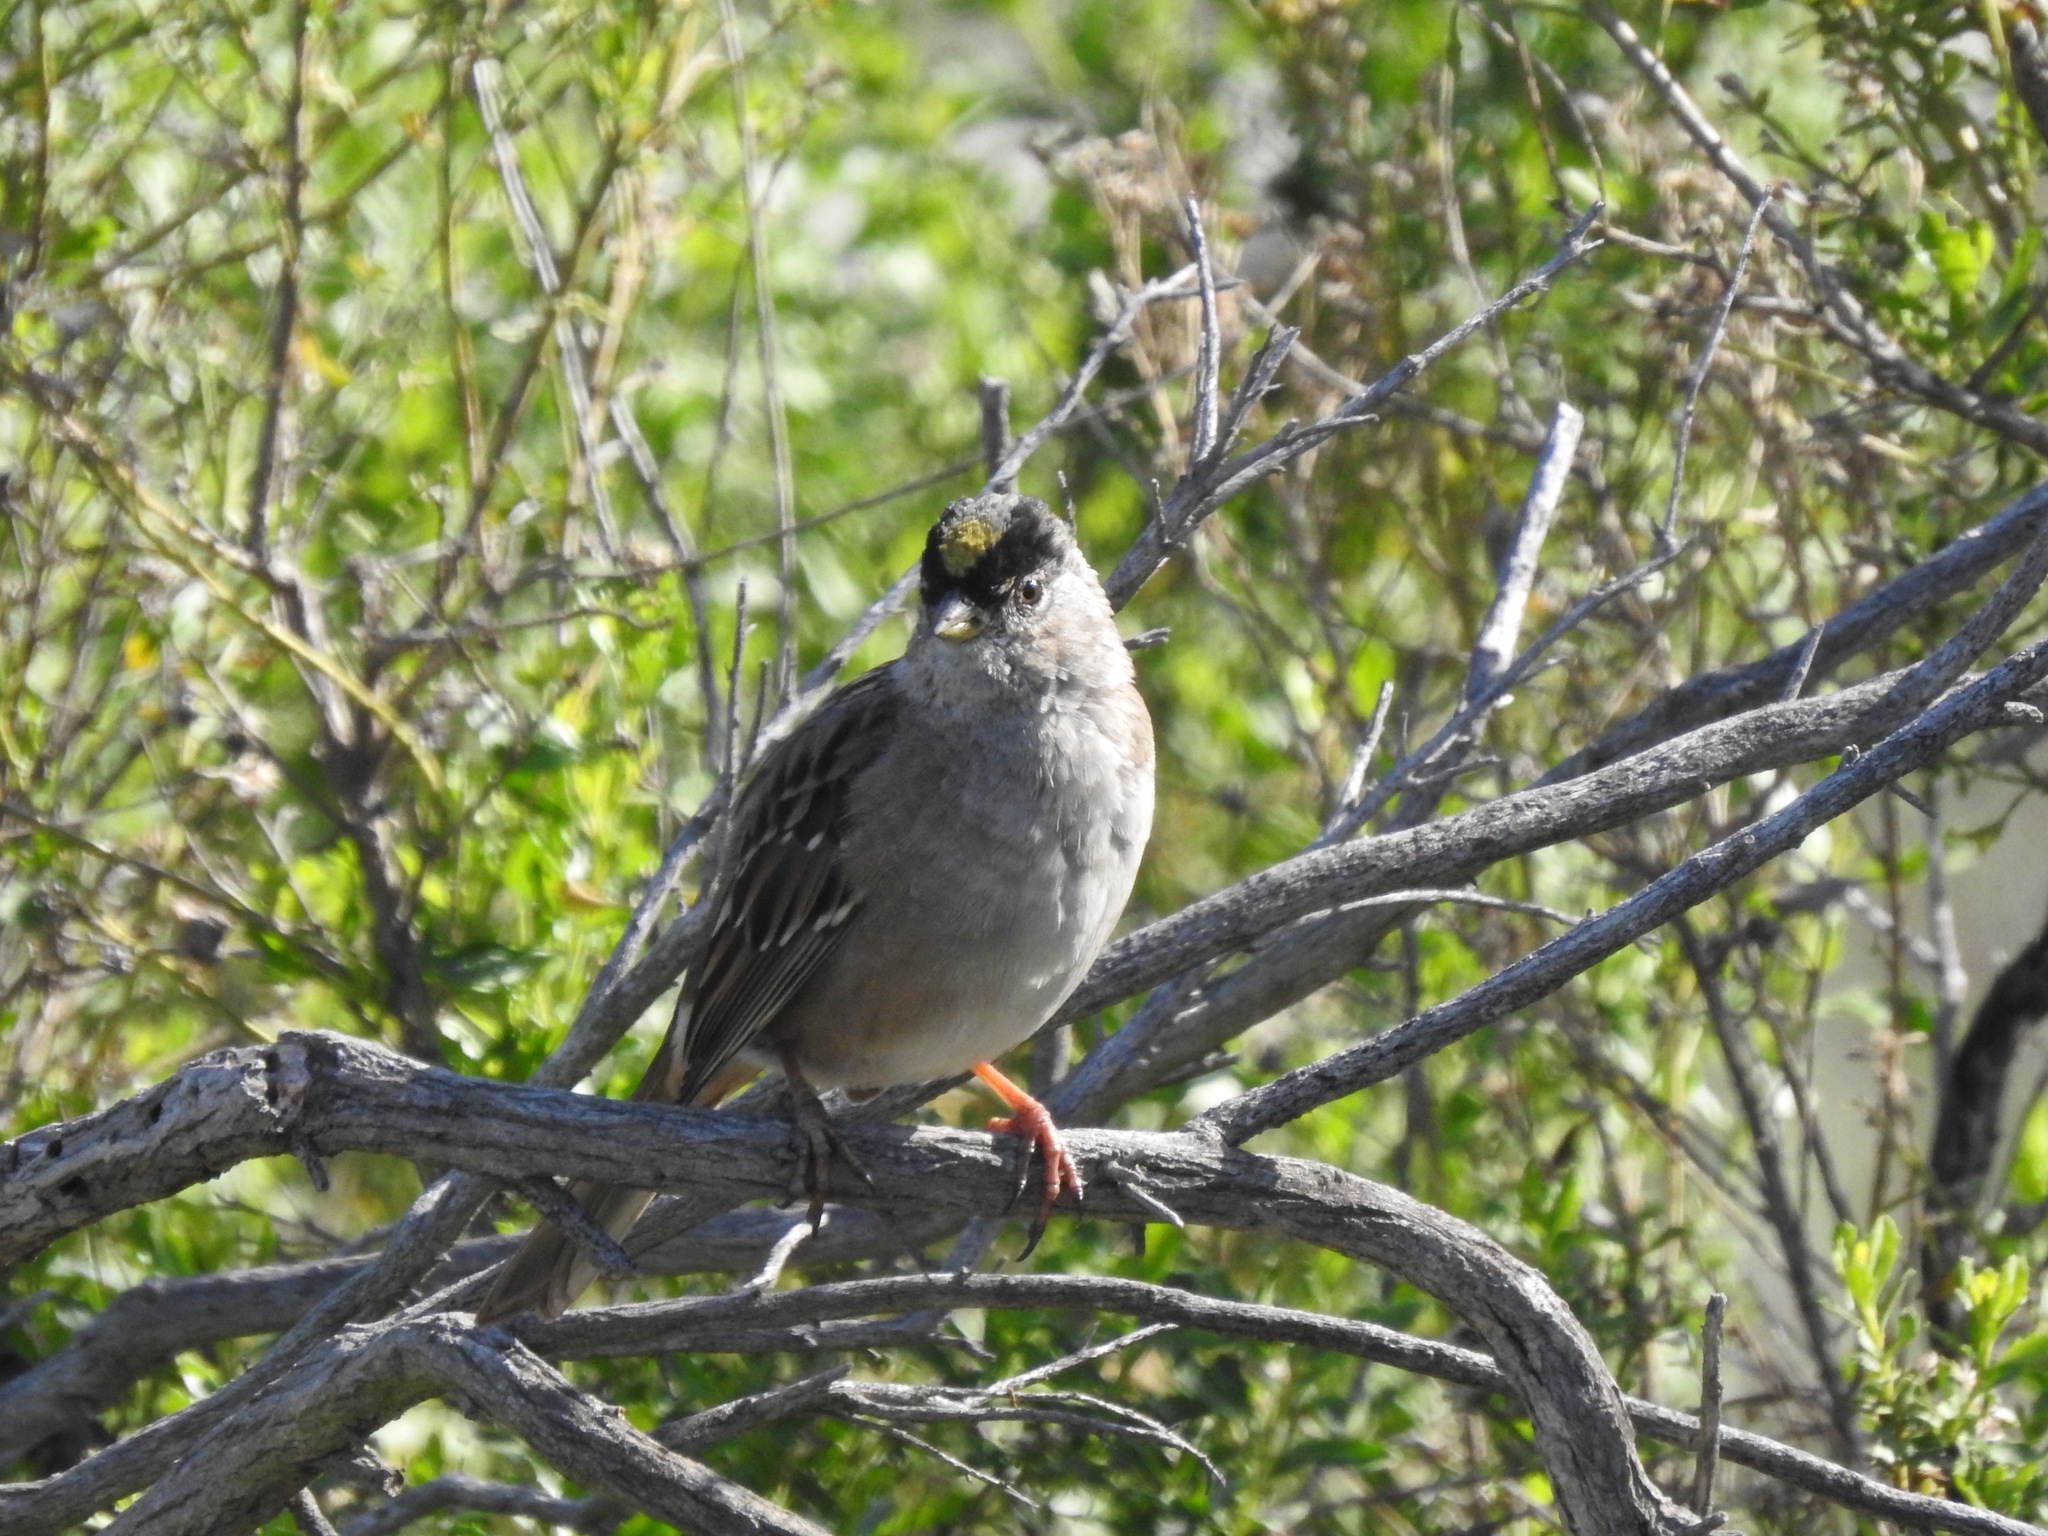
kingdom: Animalia
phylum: Chordata
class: Aves
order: Passeriformes
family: Passerellidae
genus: Zonotrichia
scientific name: Zonotrichia atricapilla
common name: Golden-crowned sparrow
